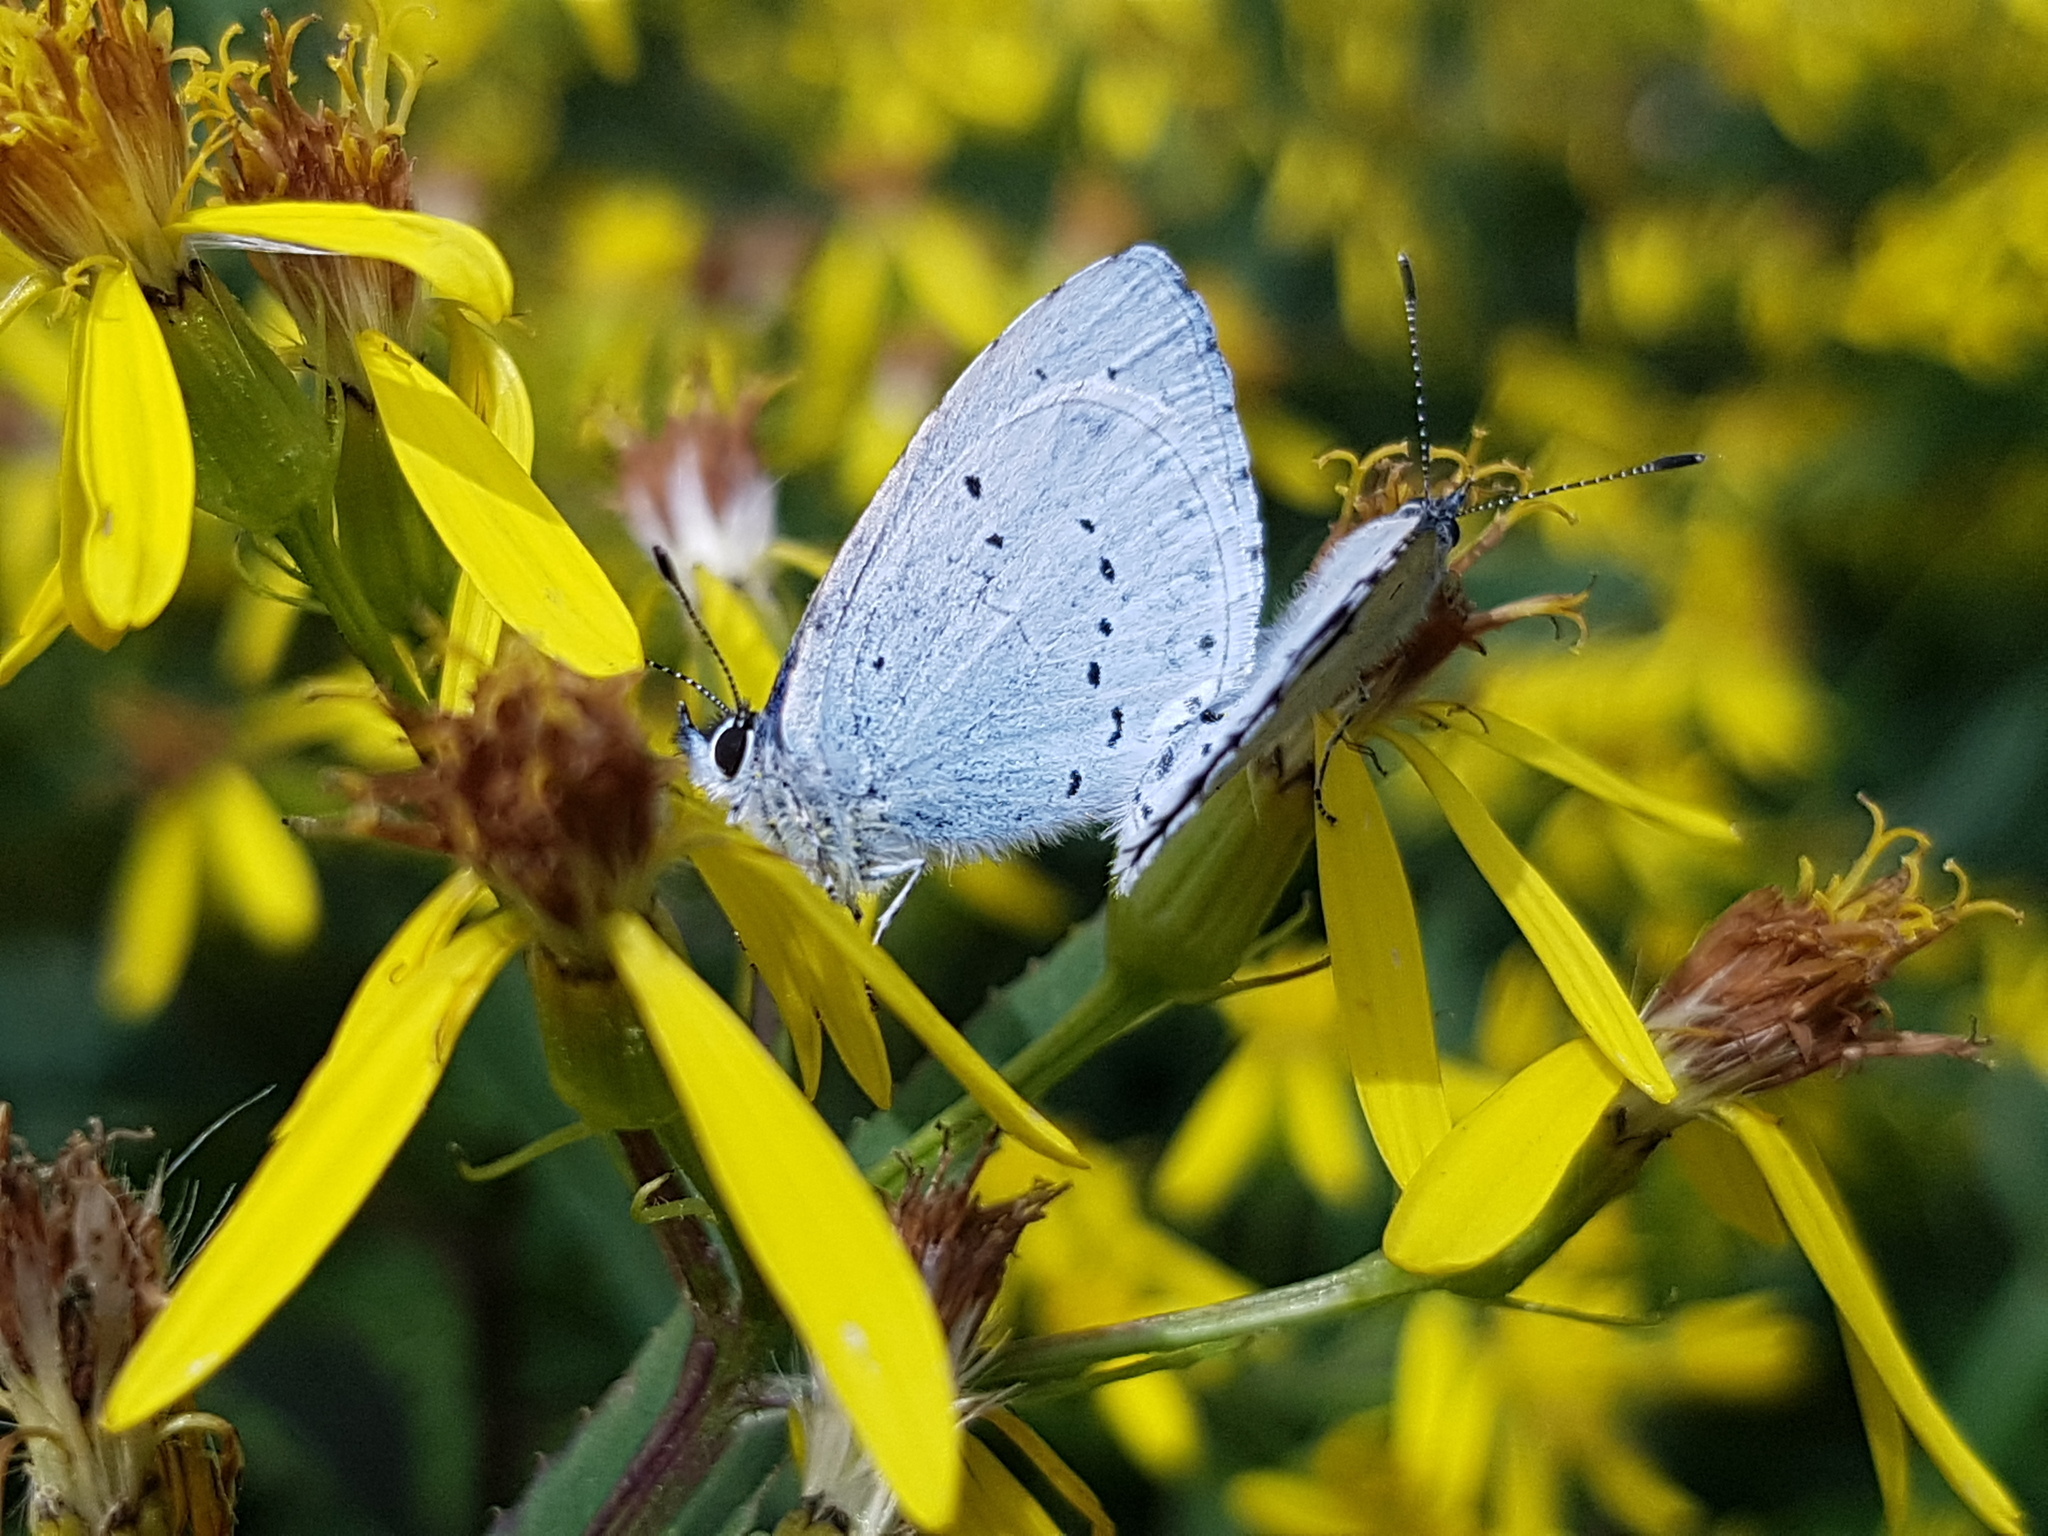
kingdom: Animalia
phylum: Arthropoda
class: Insecta
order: Lepidoptera
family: Lycaenidae
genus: Celastrina
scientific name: Celastrina argiolus
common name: Holly blue
